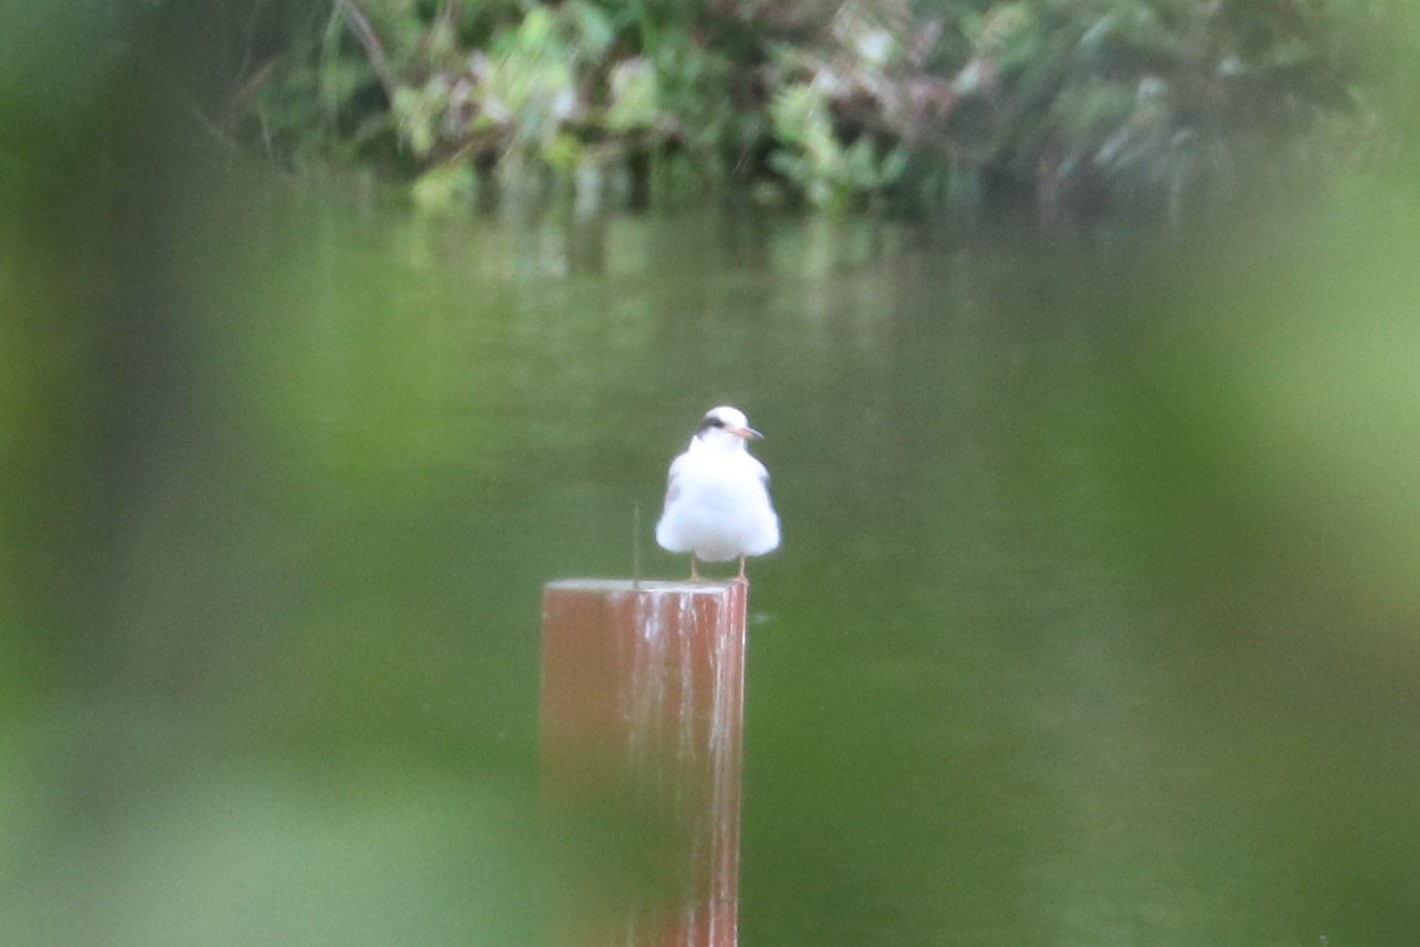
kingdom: Animalia
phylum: Chordata
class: Aves
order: Charadriiformes
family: Laridae
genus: Sterna
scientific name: Sterna hirundo
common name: Common tern
